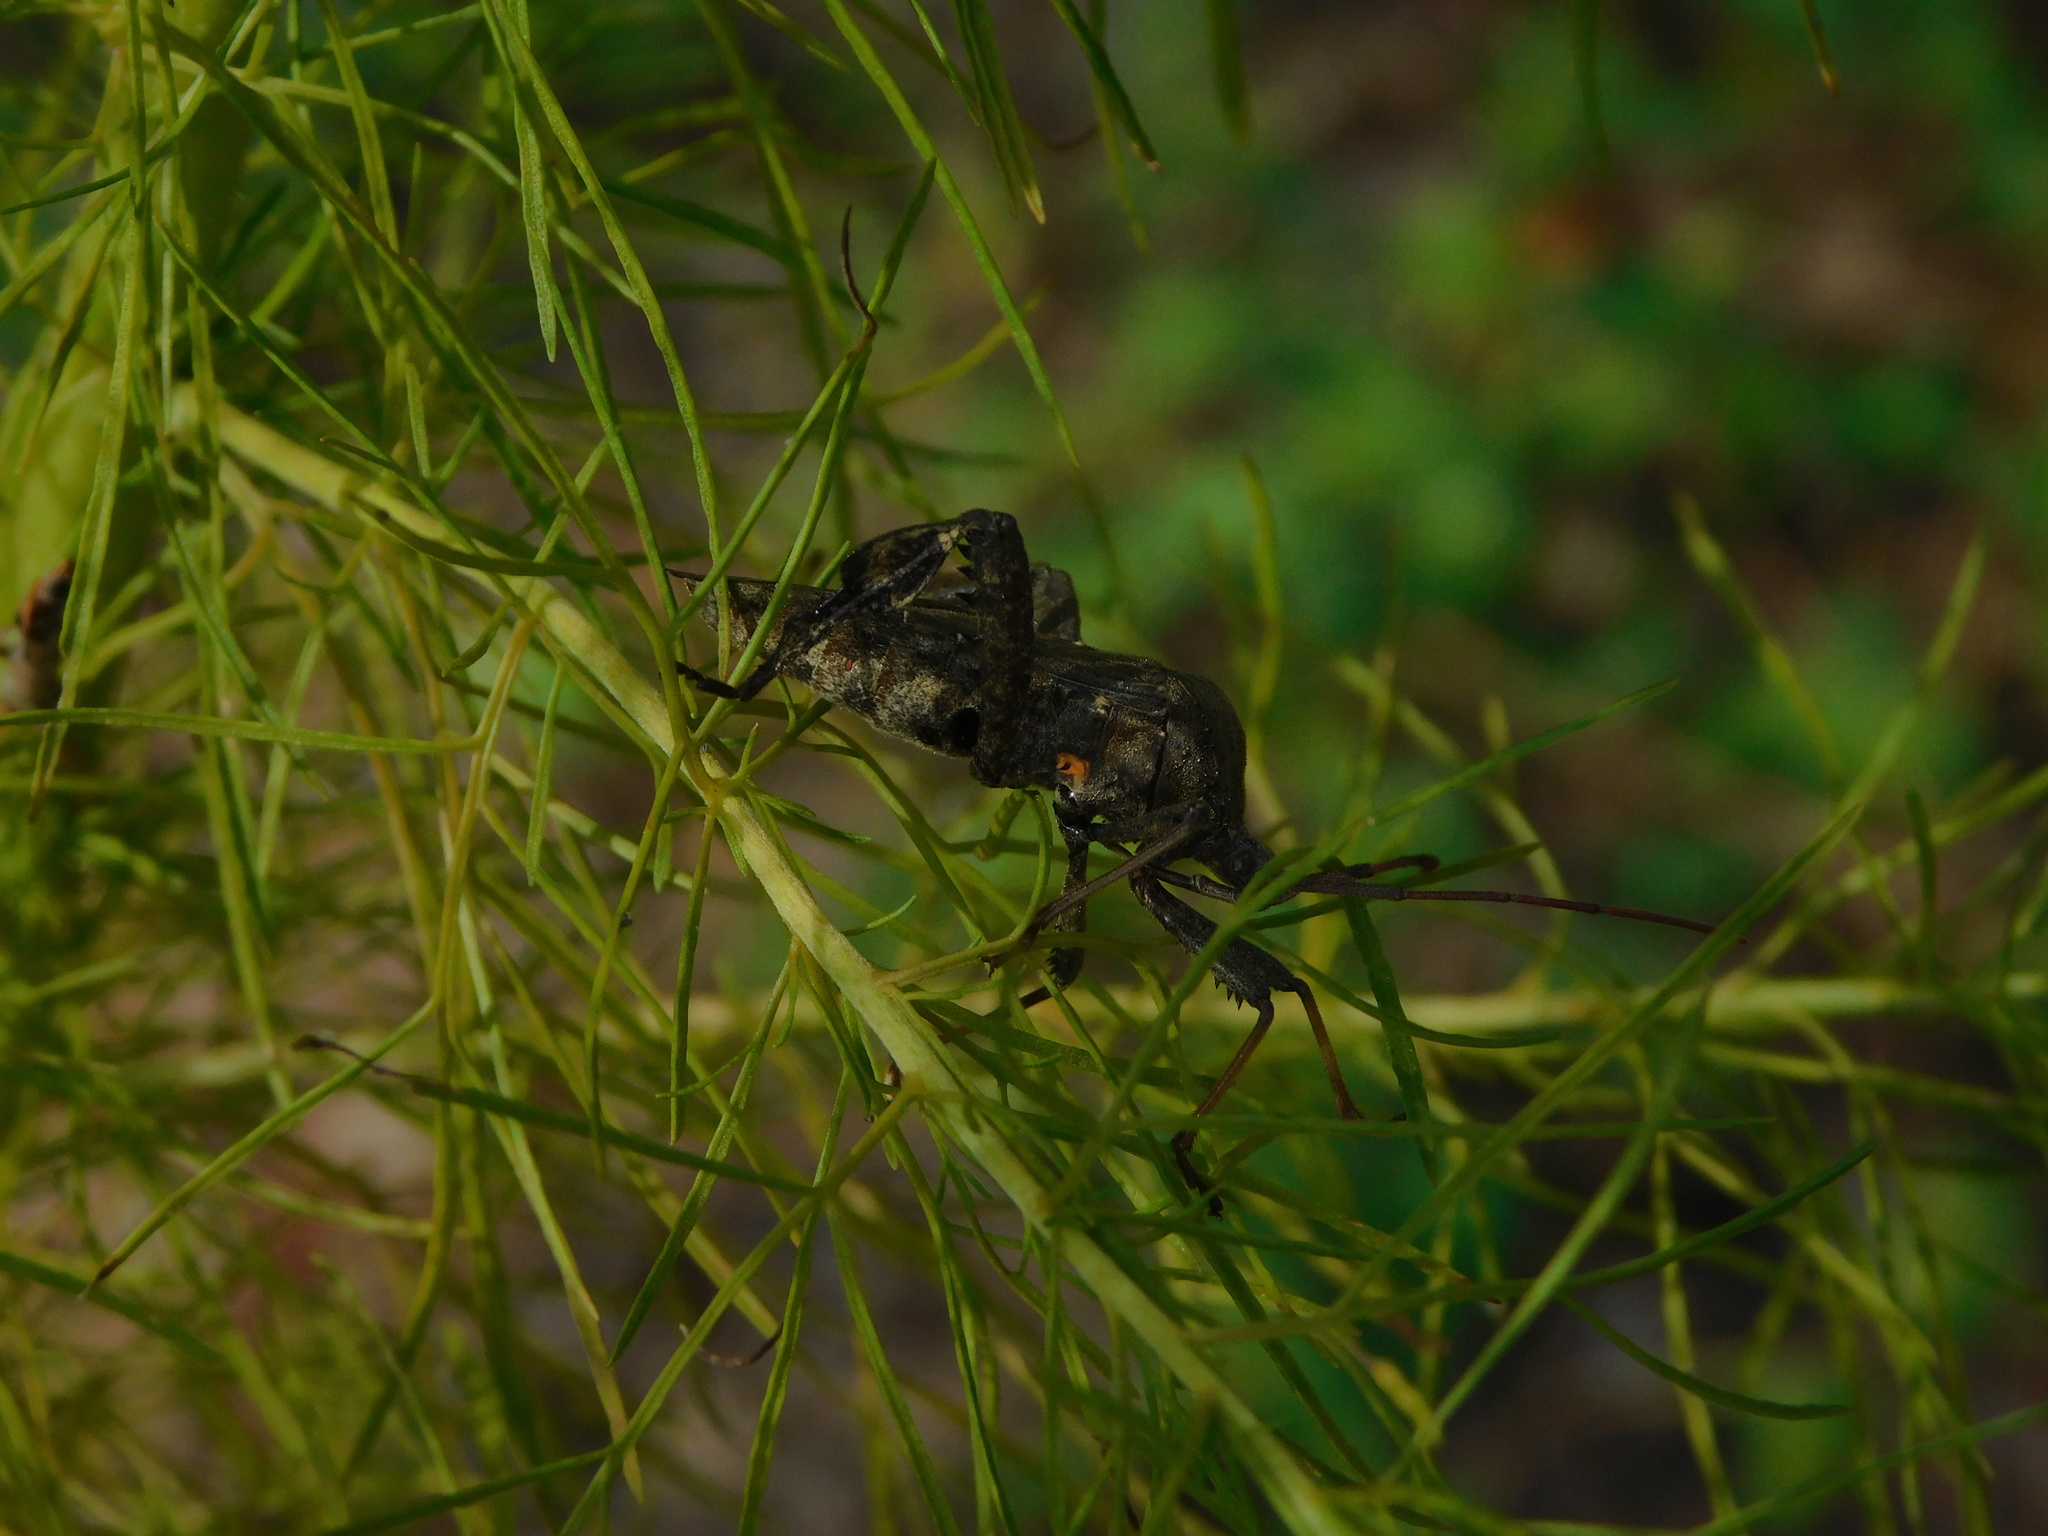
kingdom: Animalia
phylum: Arthropoda
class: Insecta
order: Hemiptera
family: Coreidae
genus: Acanthocephala
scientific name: Acanthocephala femorata
